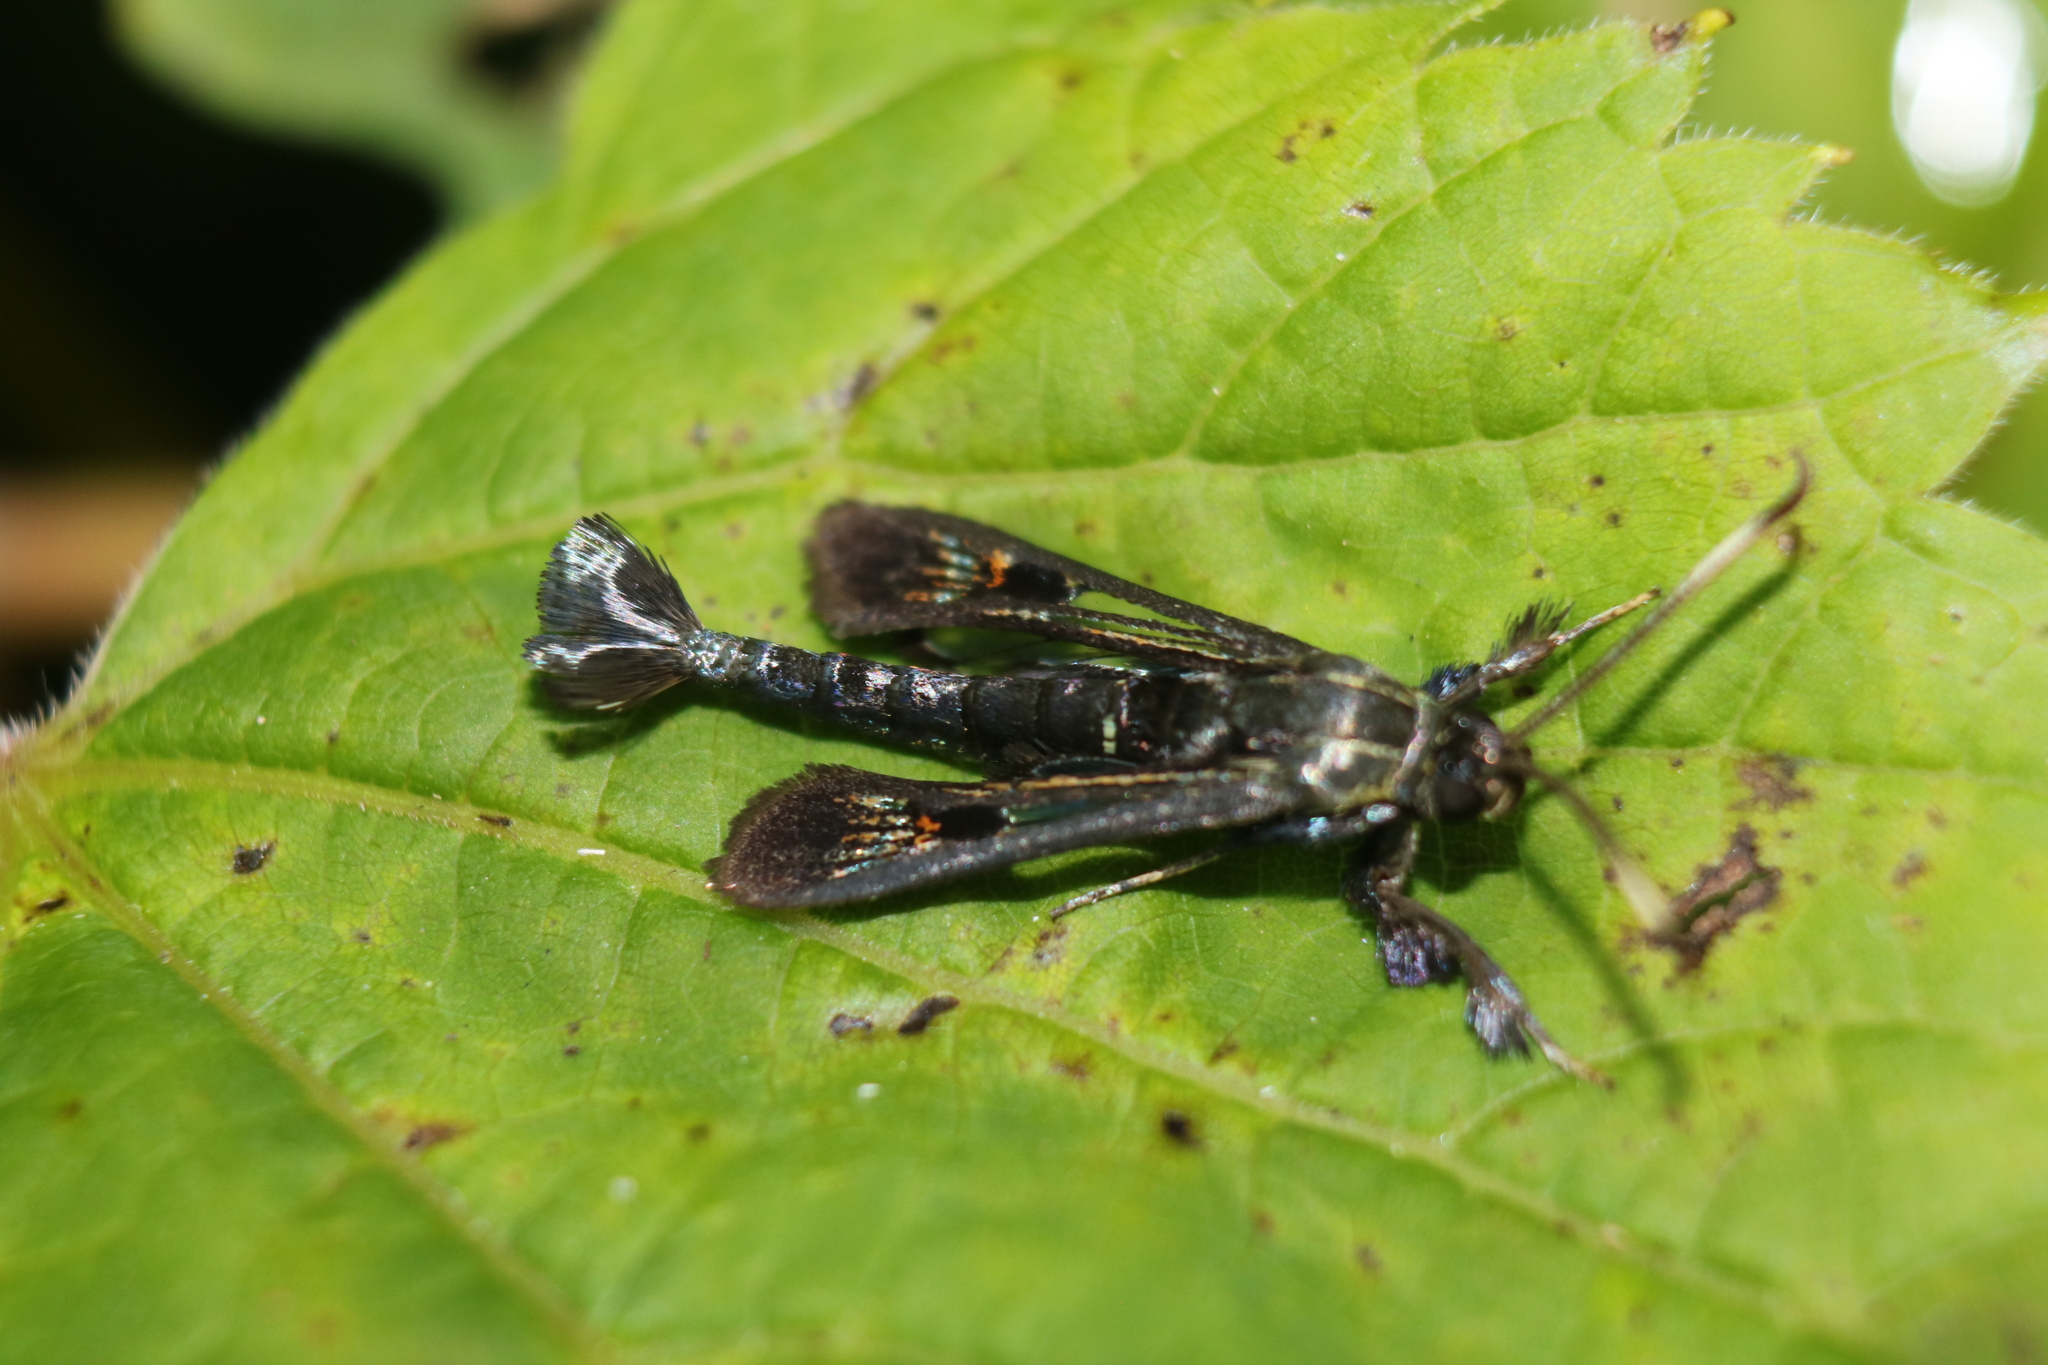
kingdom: Animalia
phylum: Arthropoda
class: Insecta
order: Lepidoptera
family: Sesiidae
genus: Albuna
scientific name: Albuna fraxini
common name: Virginia creeper clearwing
